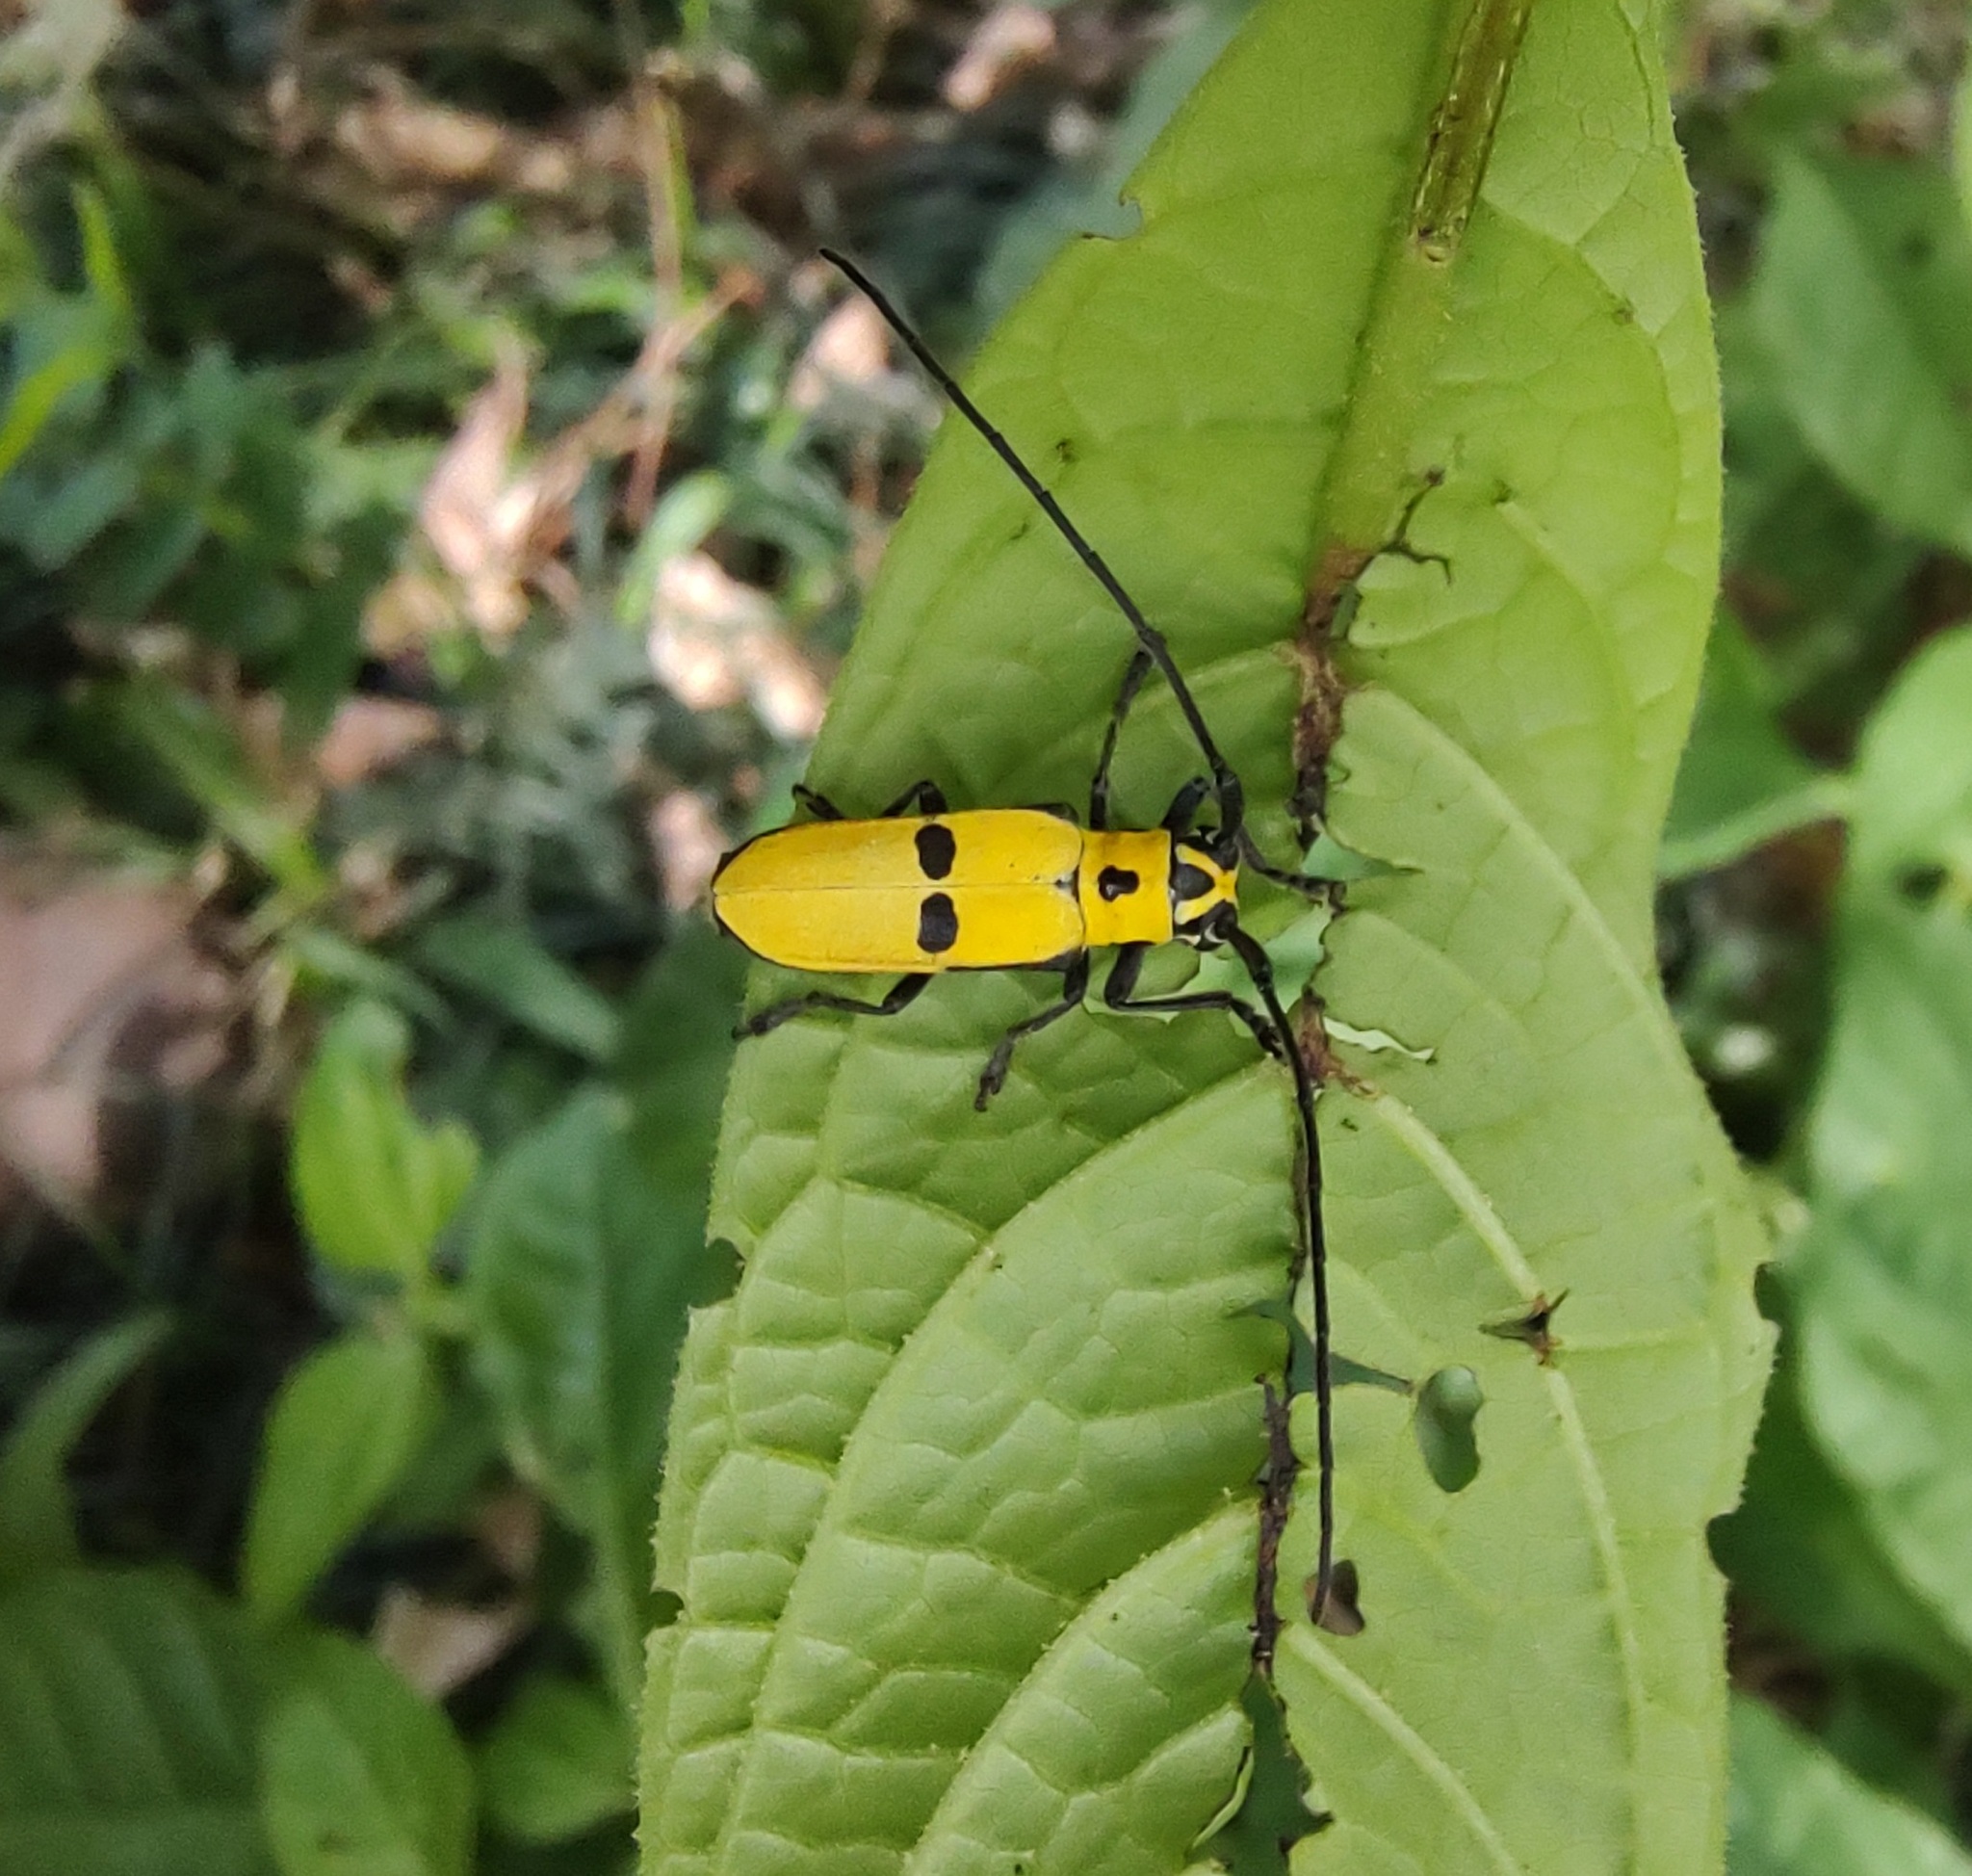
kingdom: Animalia
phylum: Arthropoda
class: Insecta
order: Coleoptera
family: Cerambycidae
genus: Adesmus
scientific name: Adesmus hemispilus
